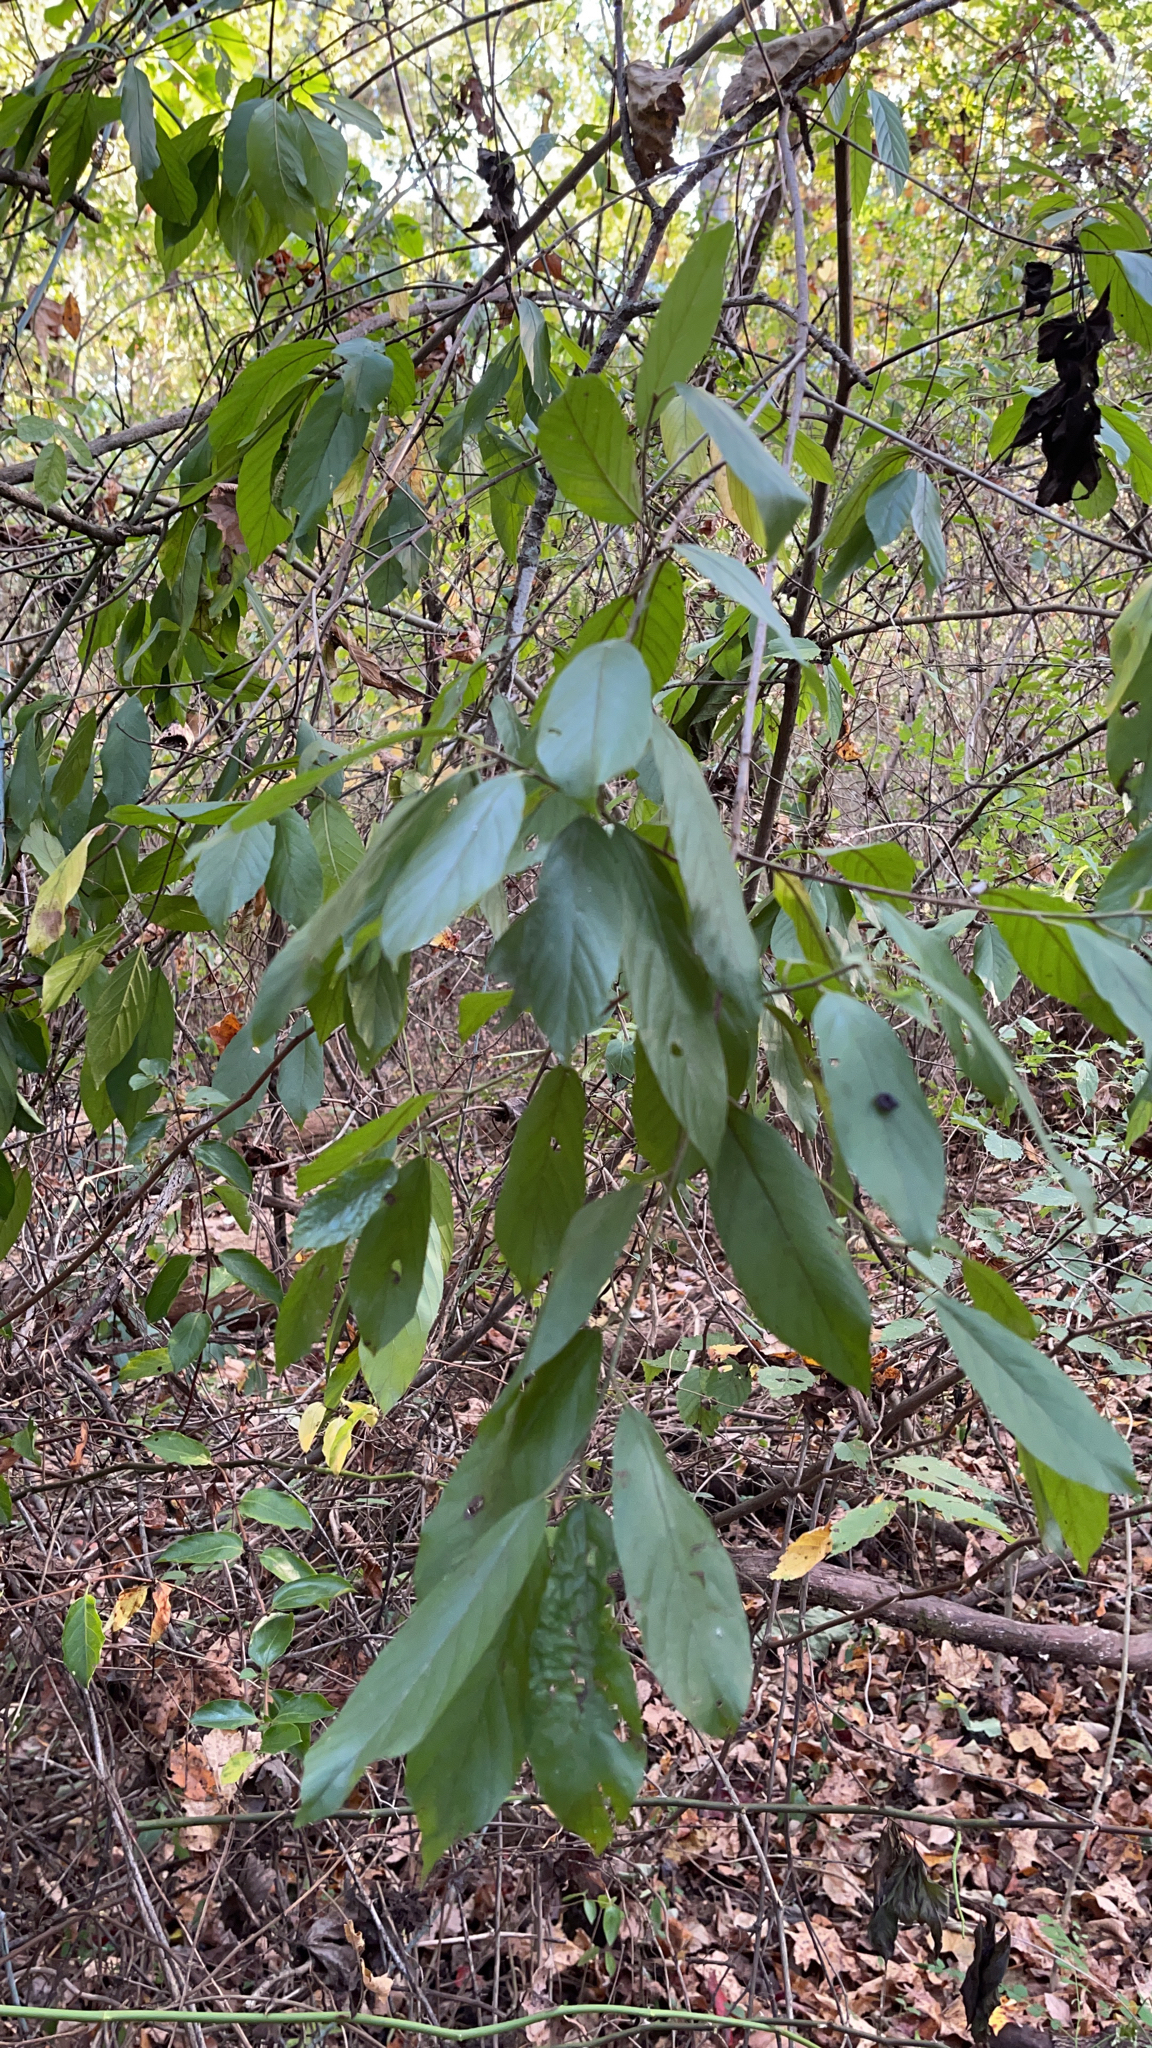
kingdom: Plantae
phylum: Tracheophyta
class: Magnoliopsida
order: Rosales
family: Rhamnaceae
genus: Frangula
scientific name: Frangula caroliniana
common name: Carolina buckthorn
